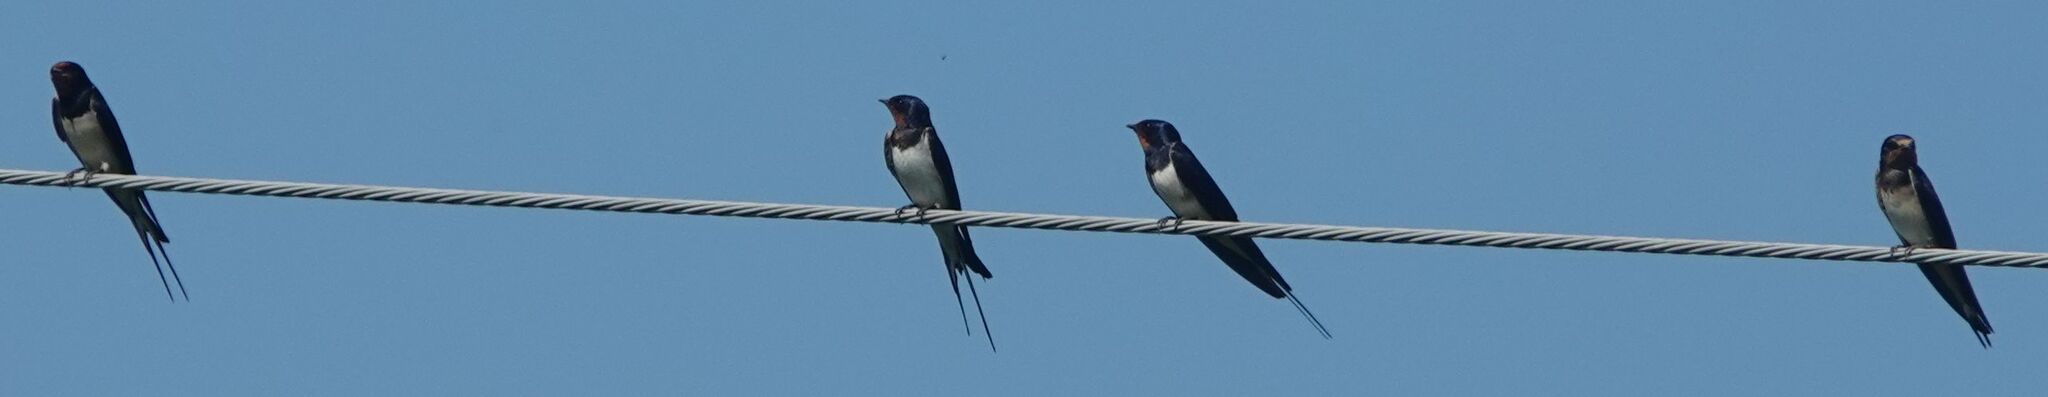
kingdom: Animalia
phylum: Chordata
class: Aves
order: Passeriformes
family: Hirundinidae
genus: Hirundo
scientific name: Hirundo rustica
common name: Barn swallow
